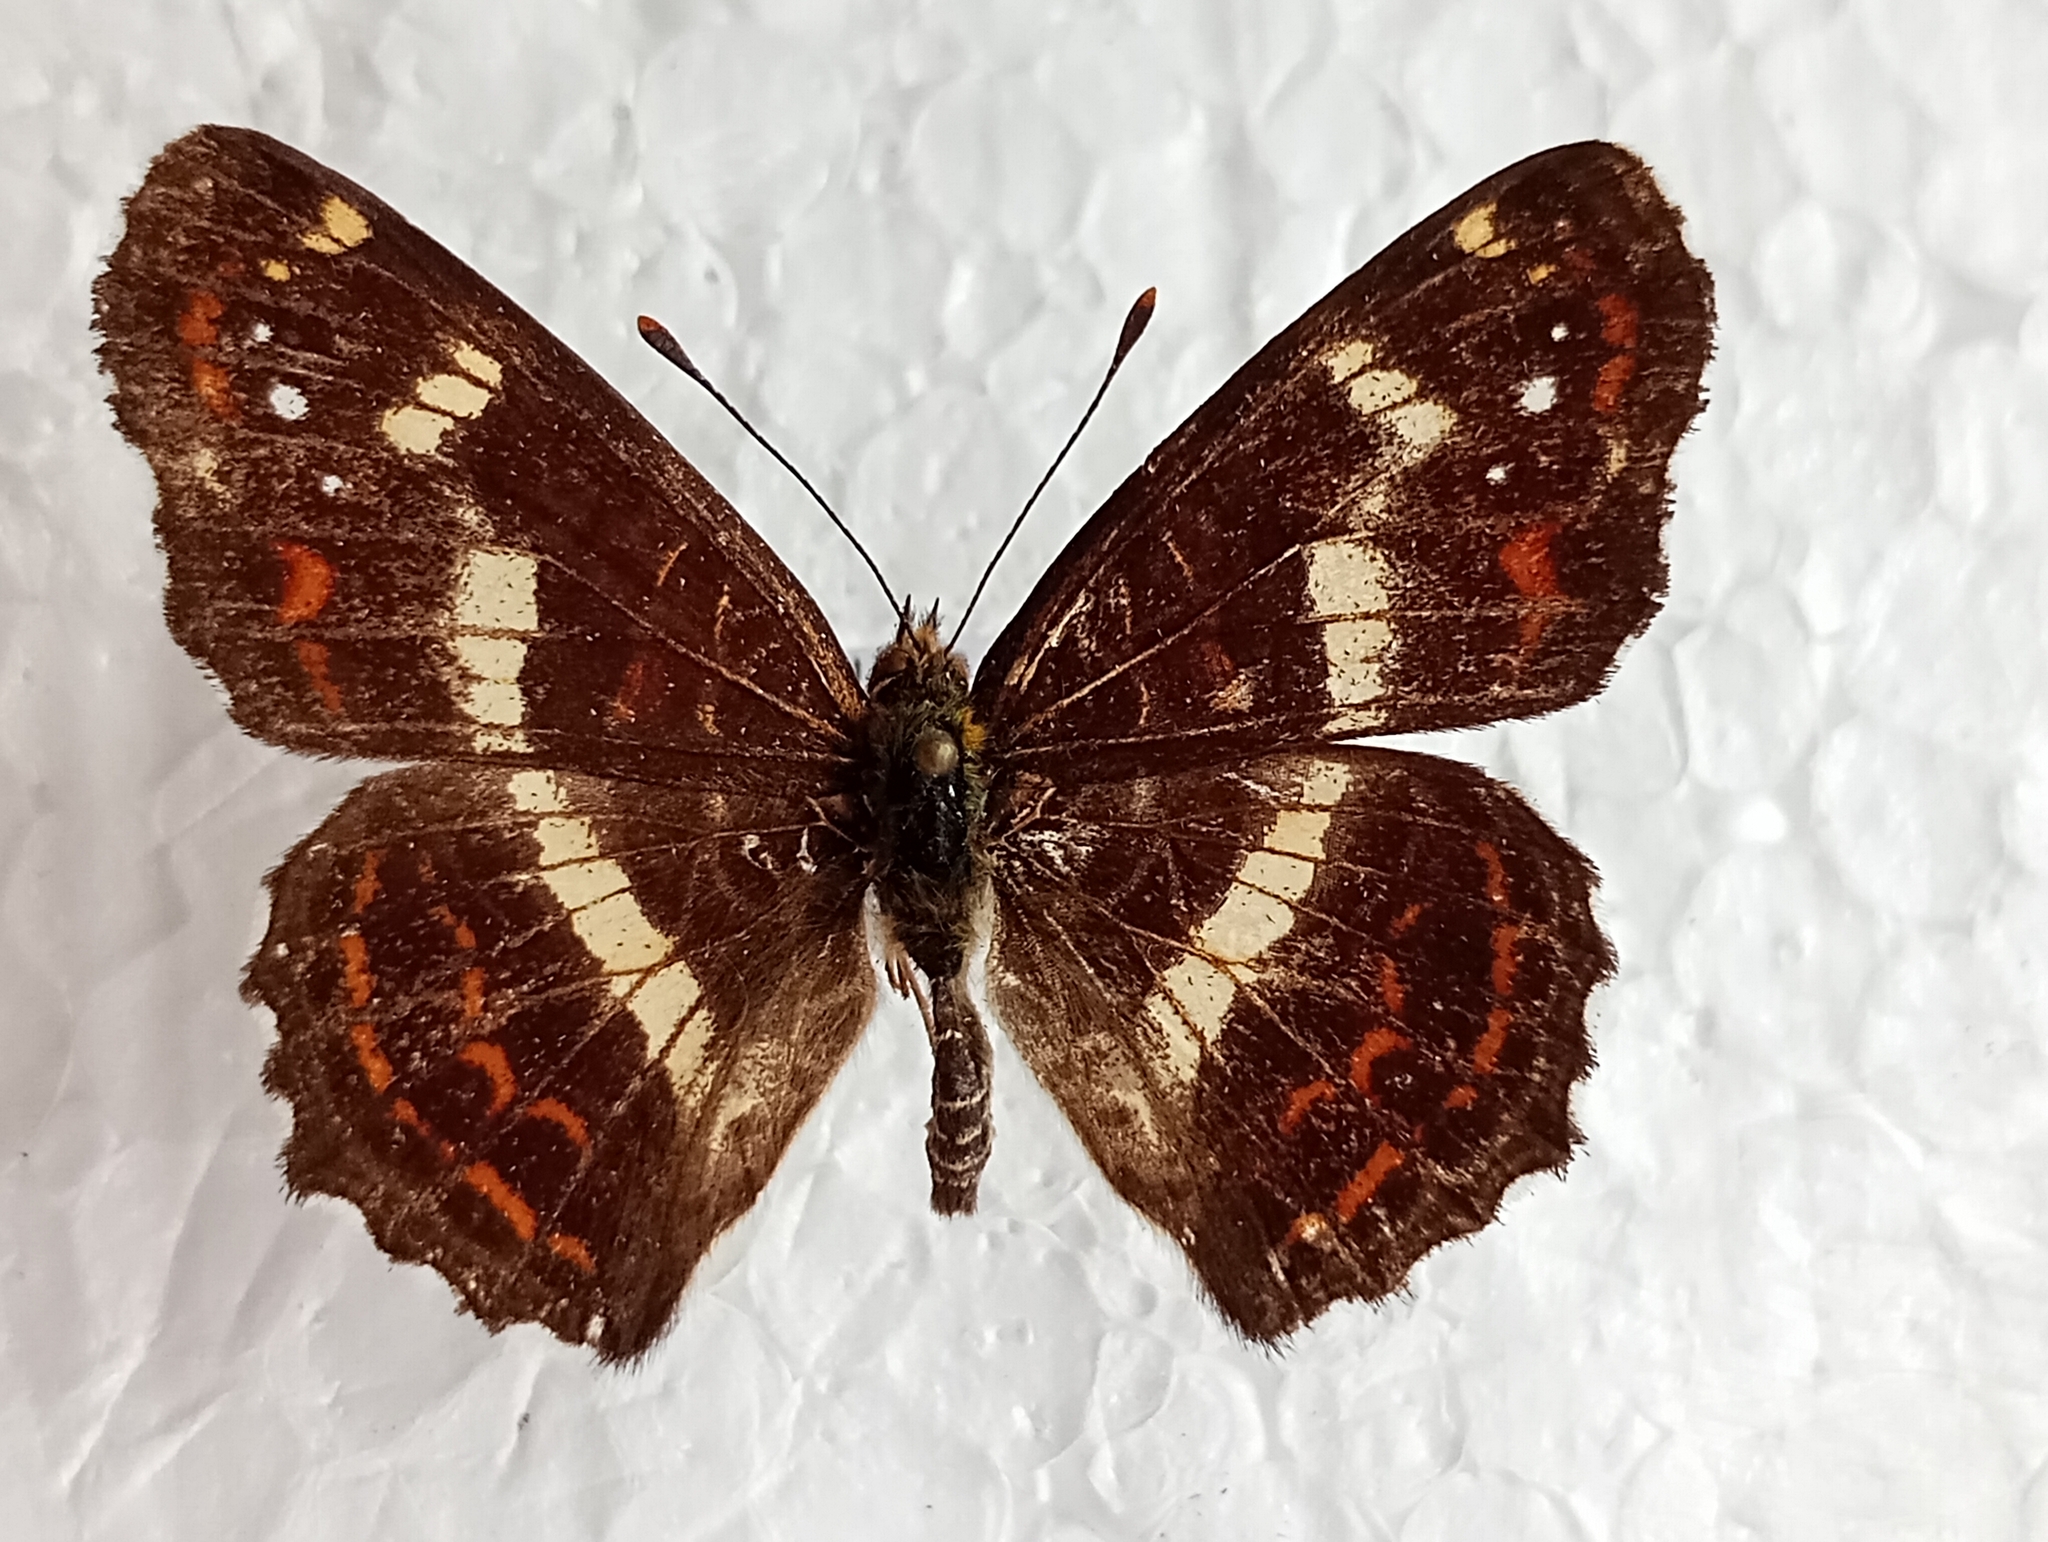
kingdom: Animalia
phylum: Arthropoda
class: Insecta
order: Lepidoptera
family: Nymphalidae
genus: Araschnia
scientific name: Araschnia burejana
